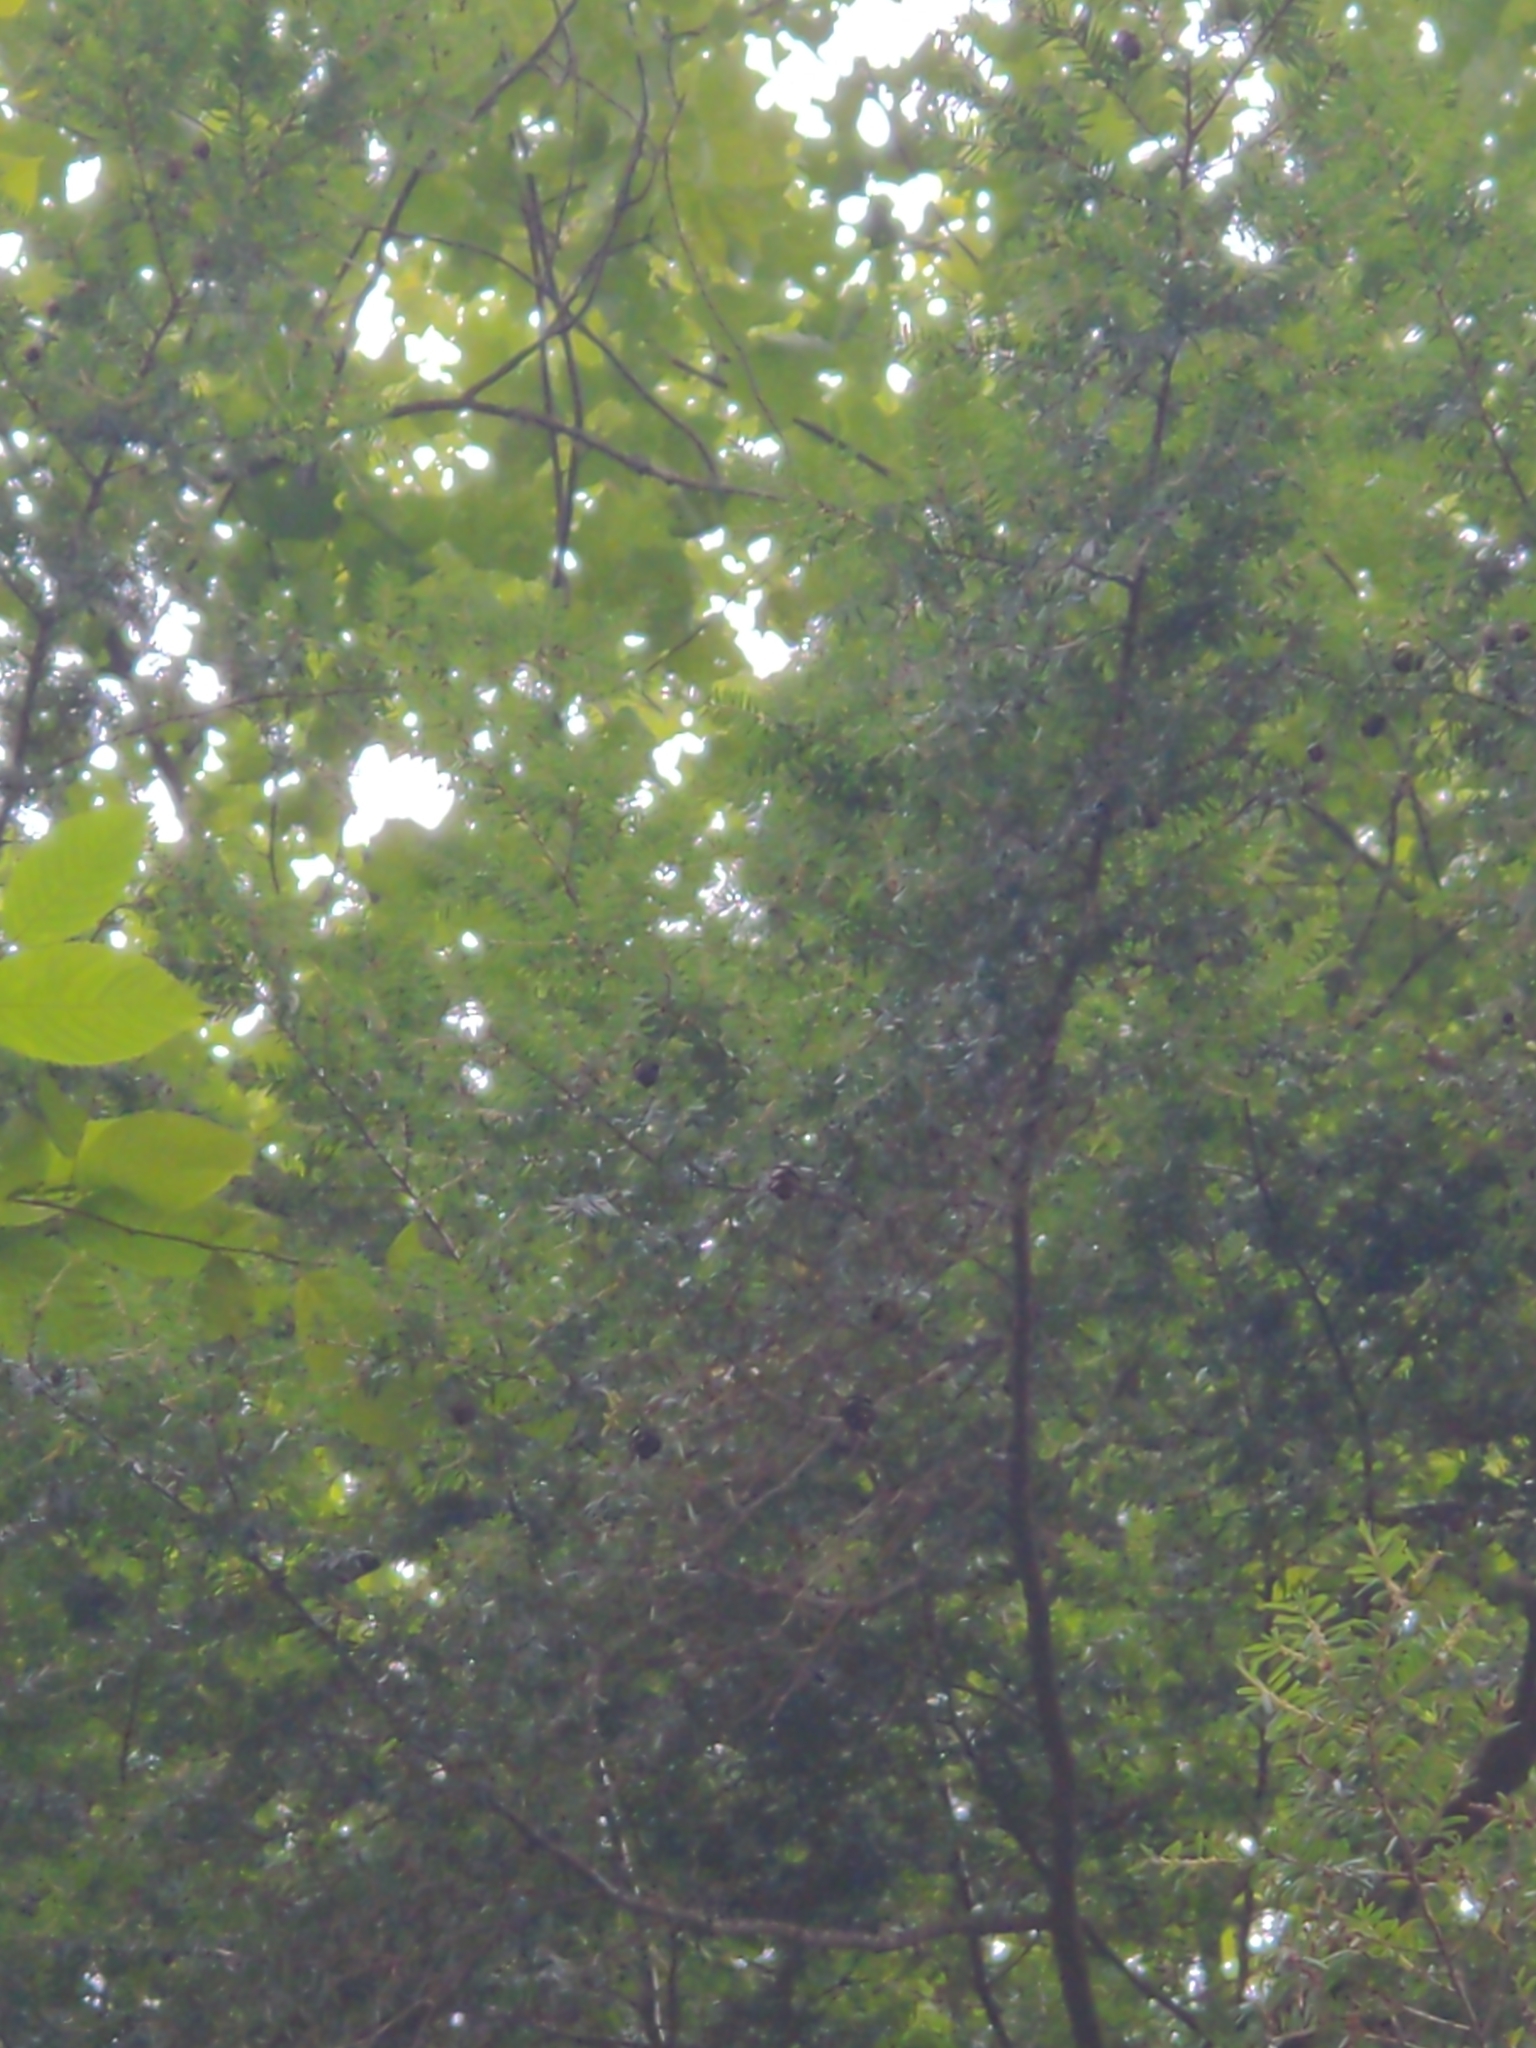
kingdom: Plantae
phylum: Tracheophyta
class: Pinopsida
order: Pinales
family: Pinaceae
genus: Tsuga
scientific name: Tsuga canadensis
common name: Eastern hemlock
